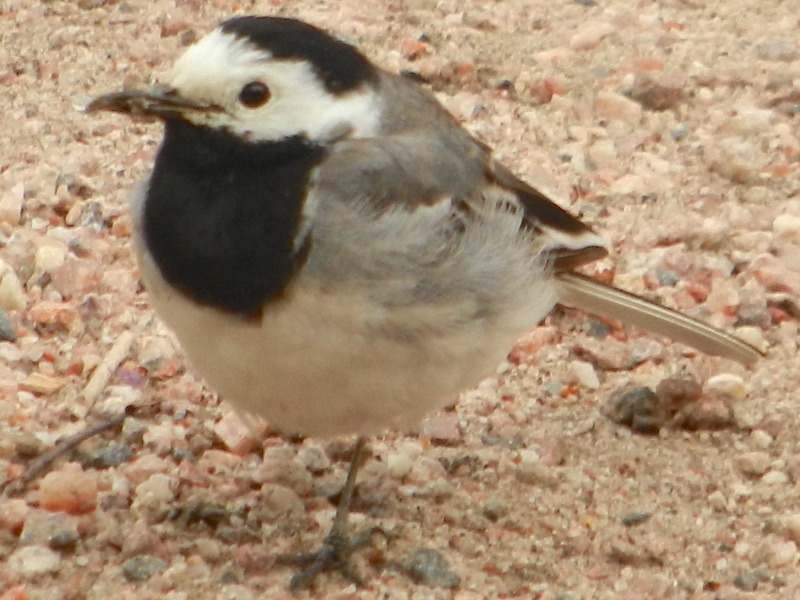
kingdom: Animalia
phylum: Chordata
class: Aves
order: Passeriformes
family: Motacillidae
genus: Motacilla
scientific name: Motacilla alba
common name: White wagtail
